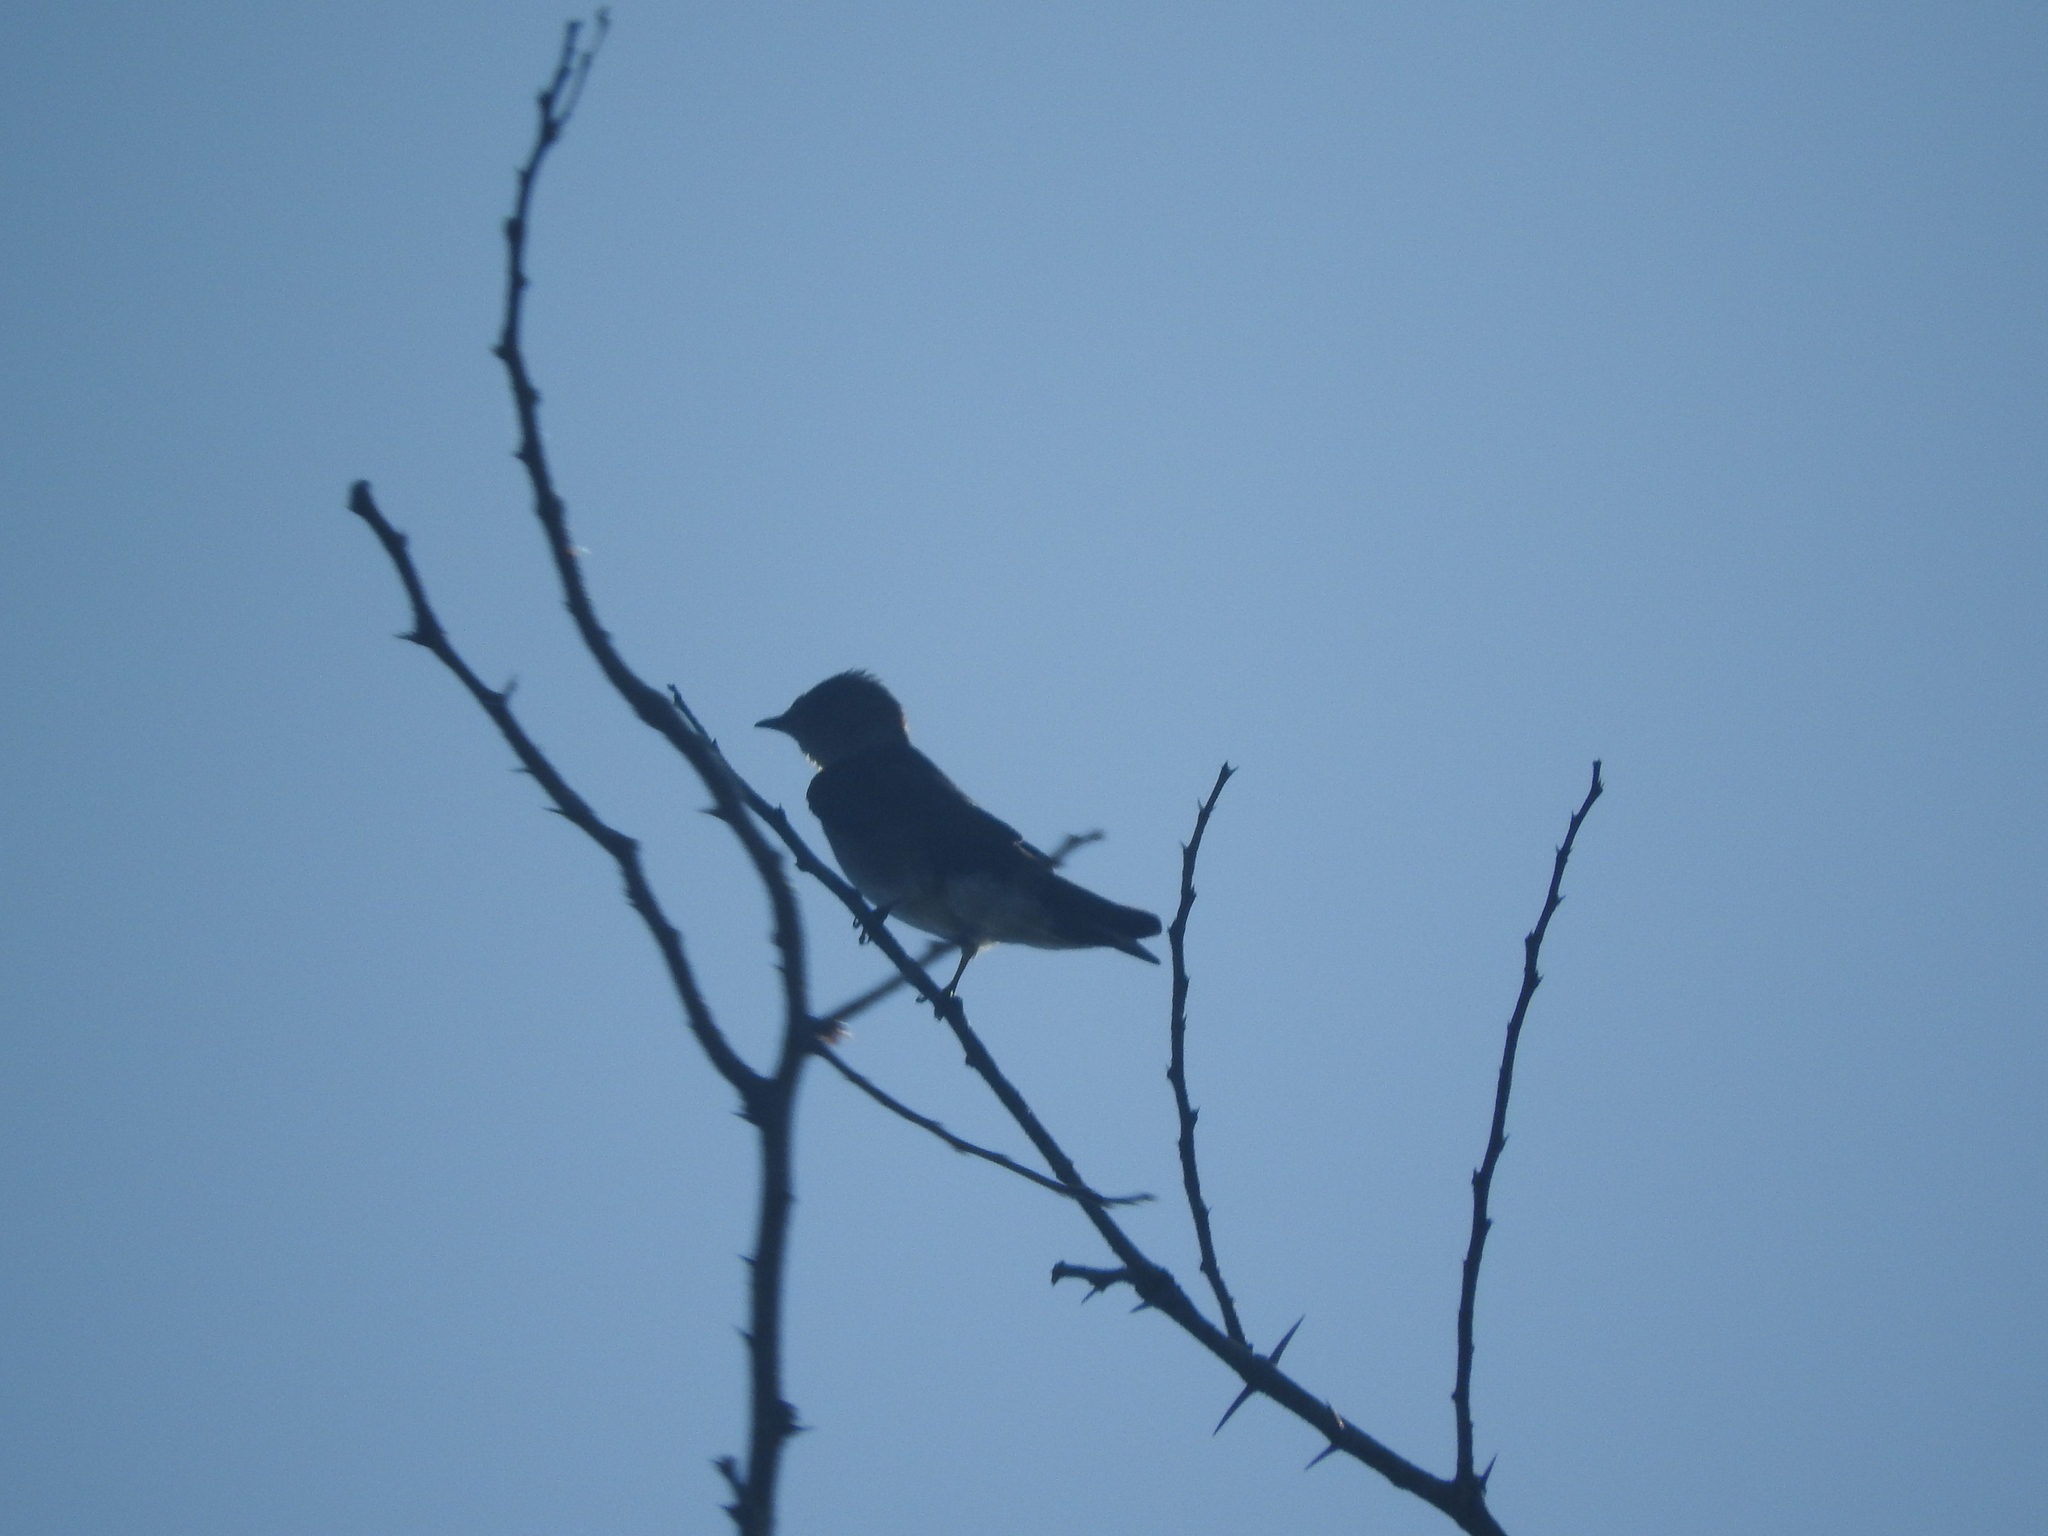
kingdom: Animalia
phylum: Chordata
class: Aves
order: Passeriformes
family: Hirundinidae
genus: Progne
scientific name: Progne chalybea
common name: Grey-breasted martin
